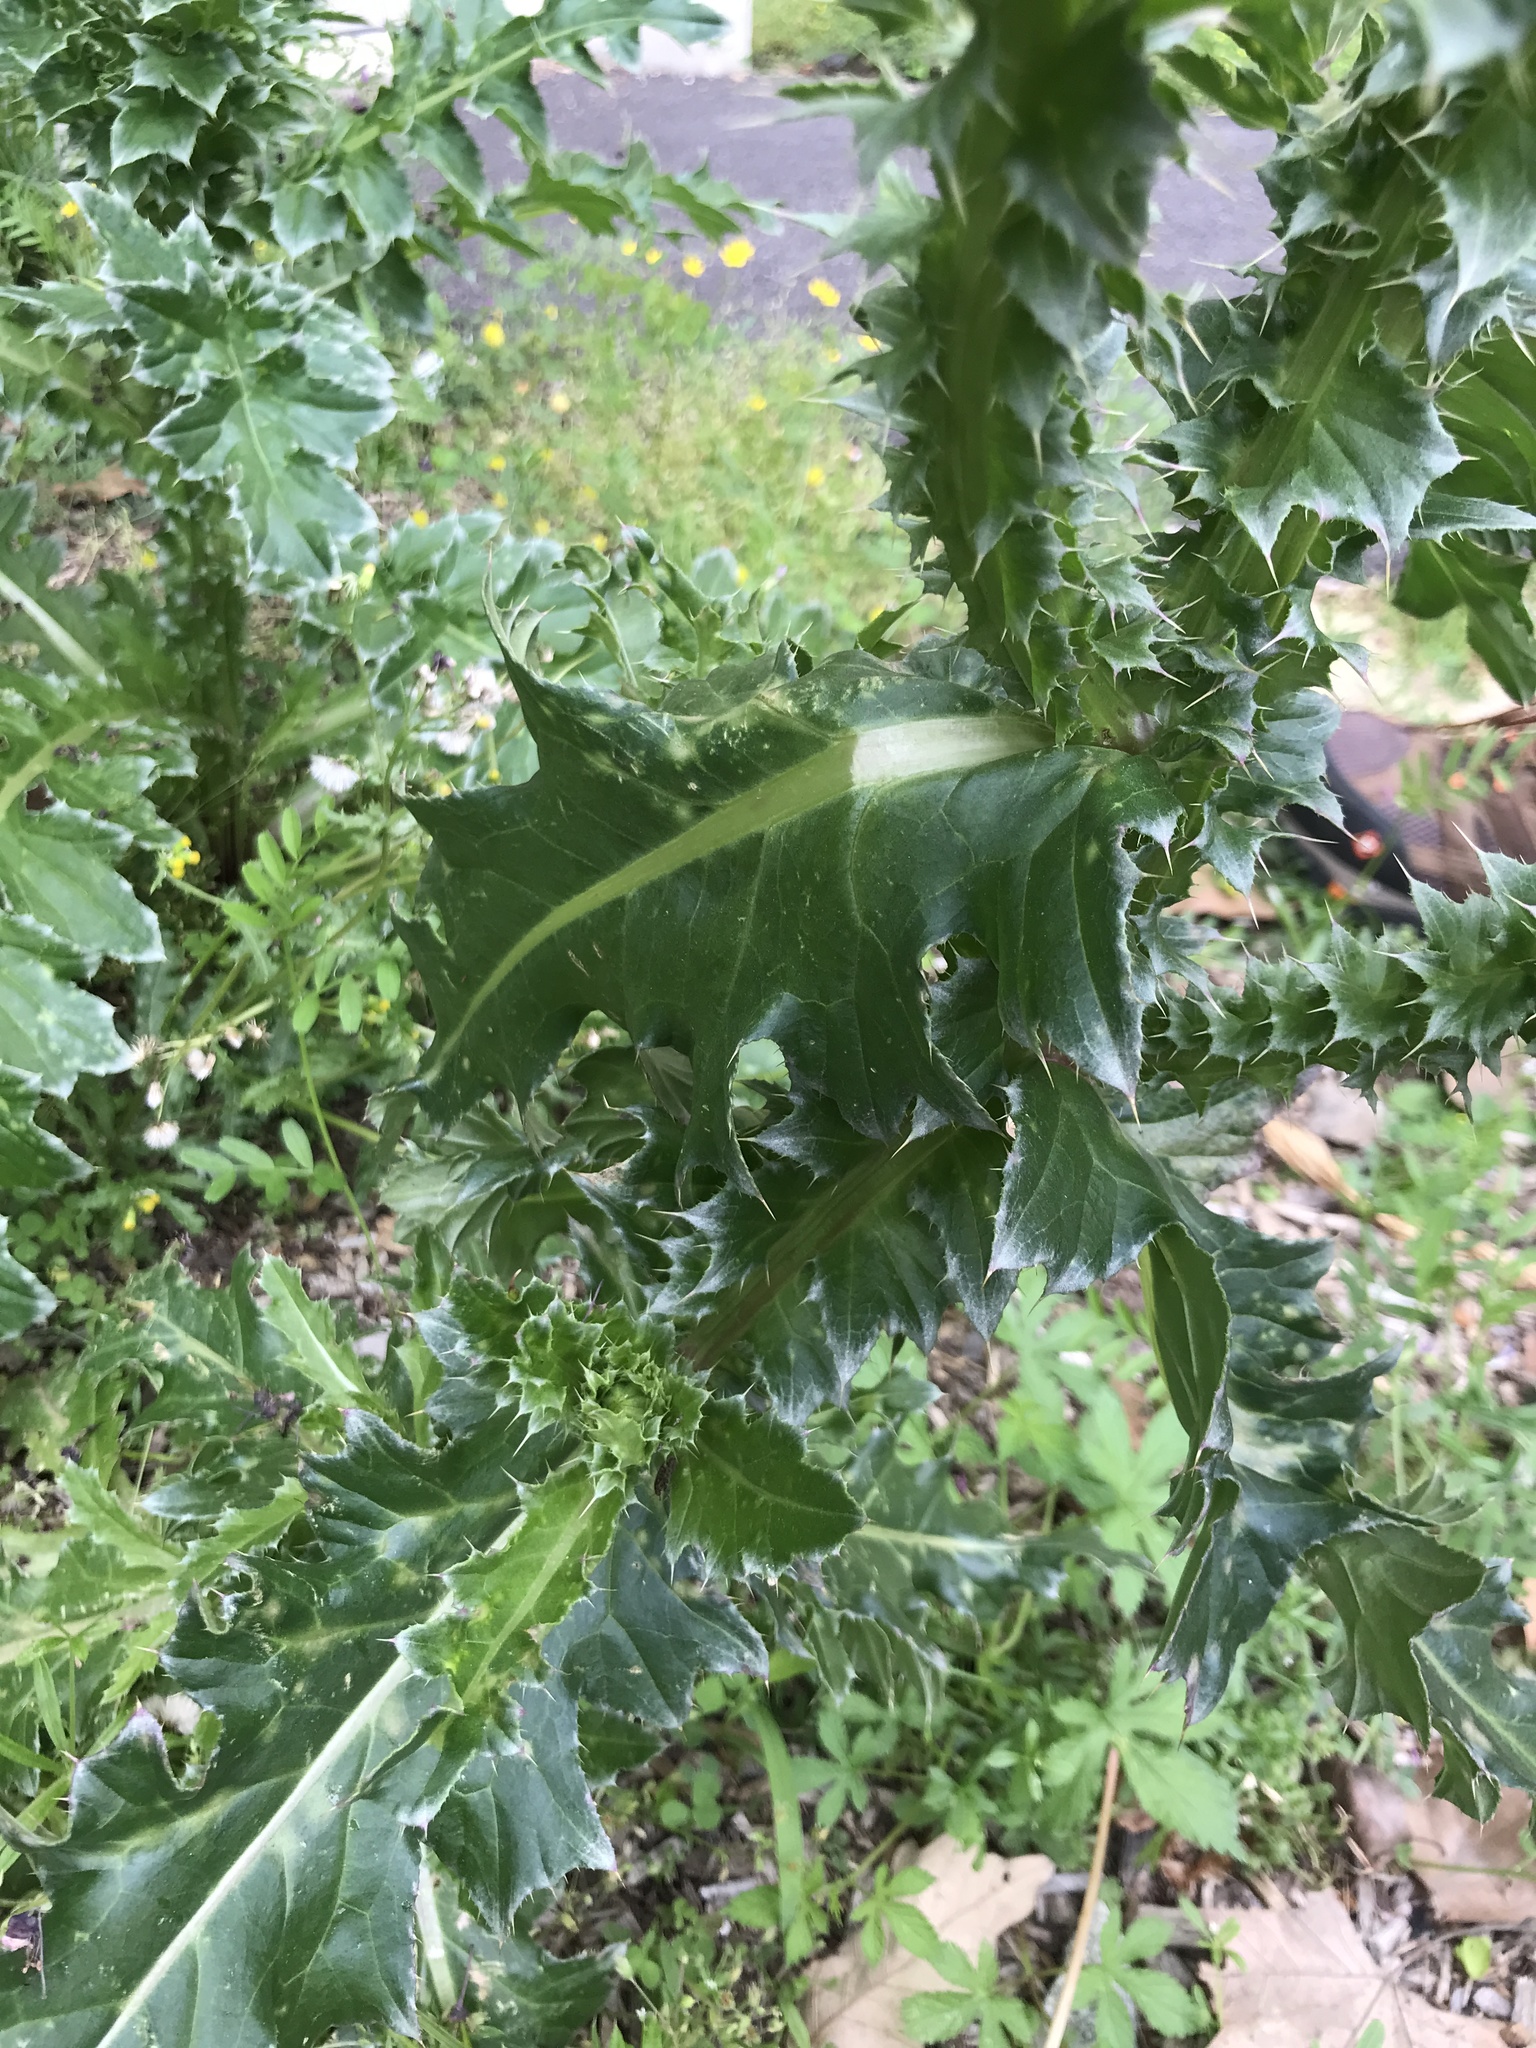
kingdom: Plantae
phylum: Tracheophyta
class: Magnoliopsida
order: Asterales
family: Asteraceae
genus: Carduus
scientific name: Carduus nutans
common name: Musk thistle
